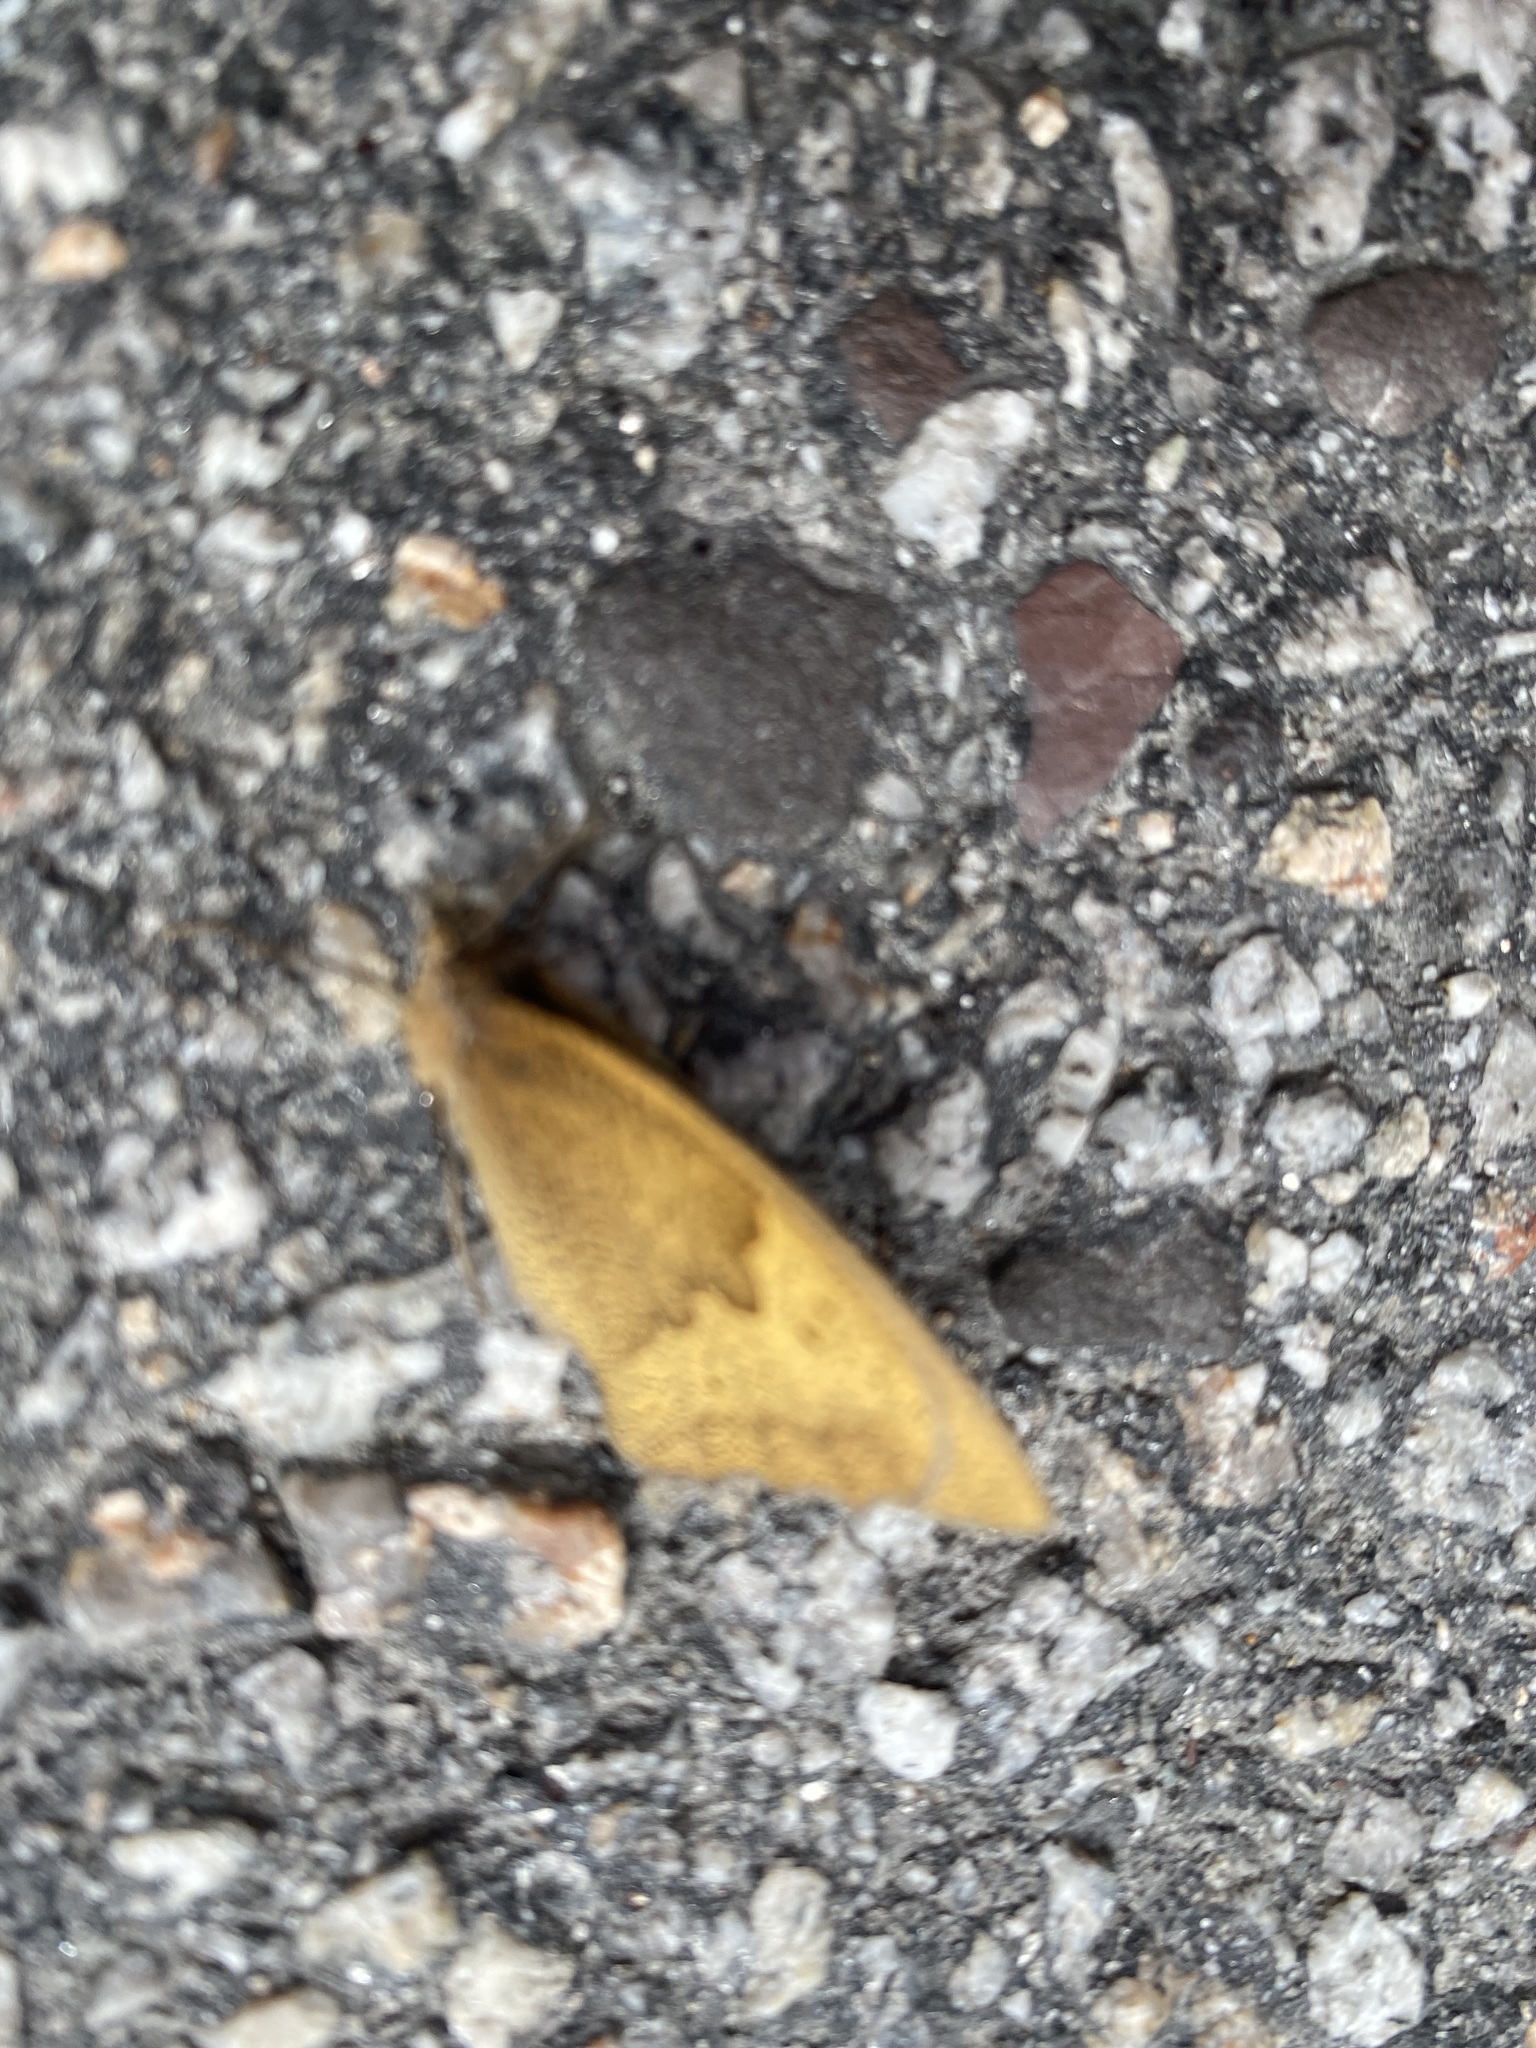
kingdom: Animalia
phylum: Arthropoda
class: Insecta
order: Lepidoptera
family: Nymphalidae
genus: Maniola
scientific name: Maniola jurtina
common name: Meadow brown
